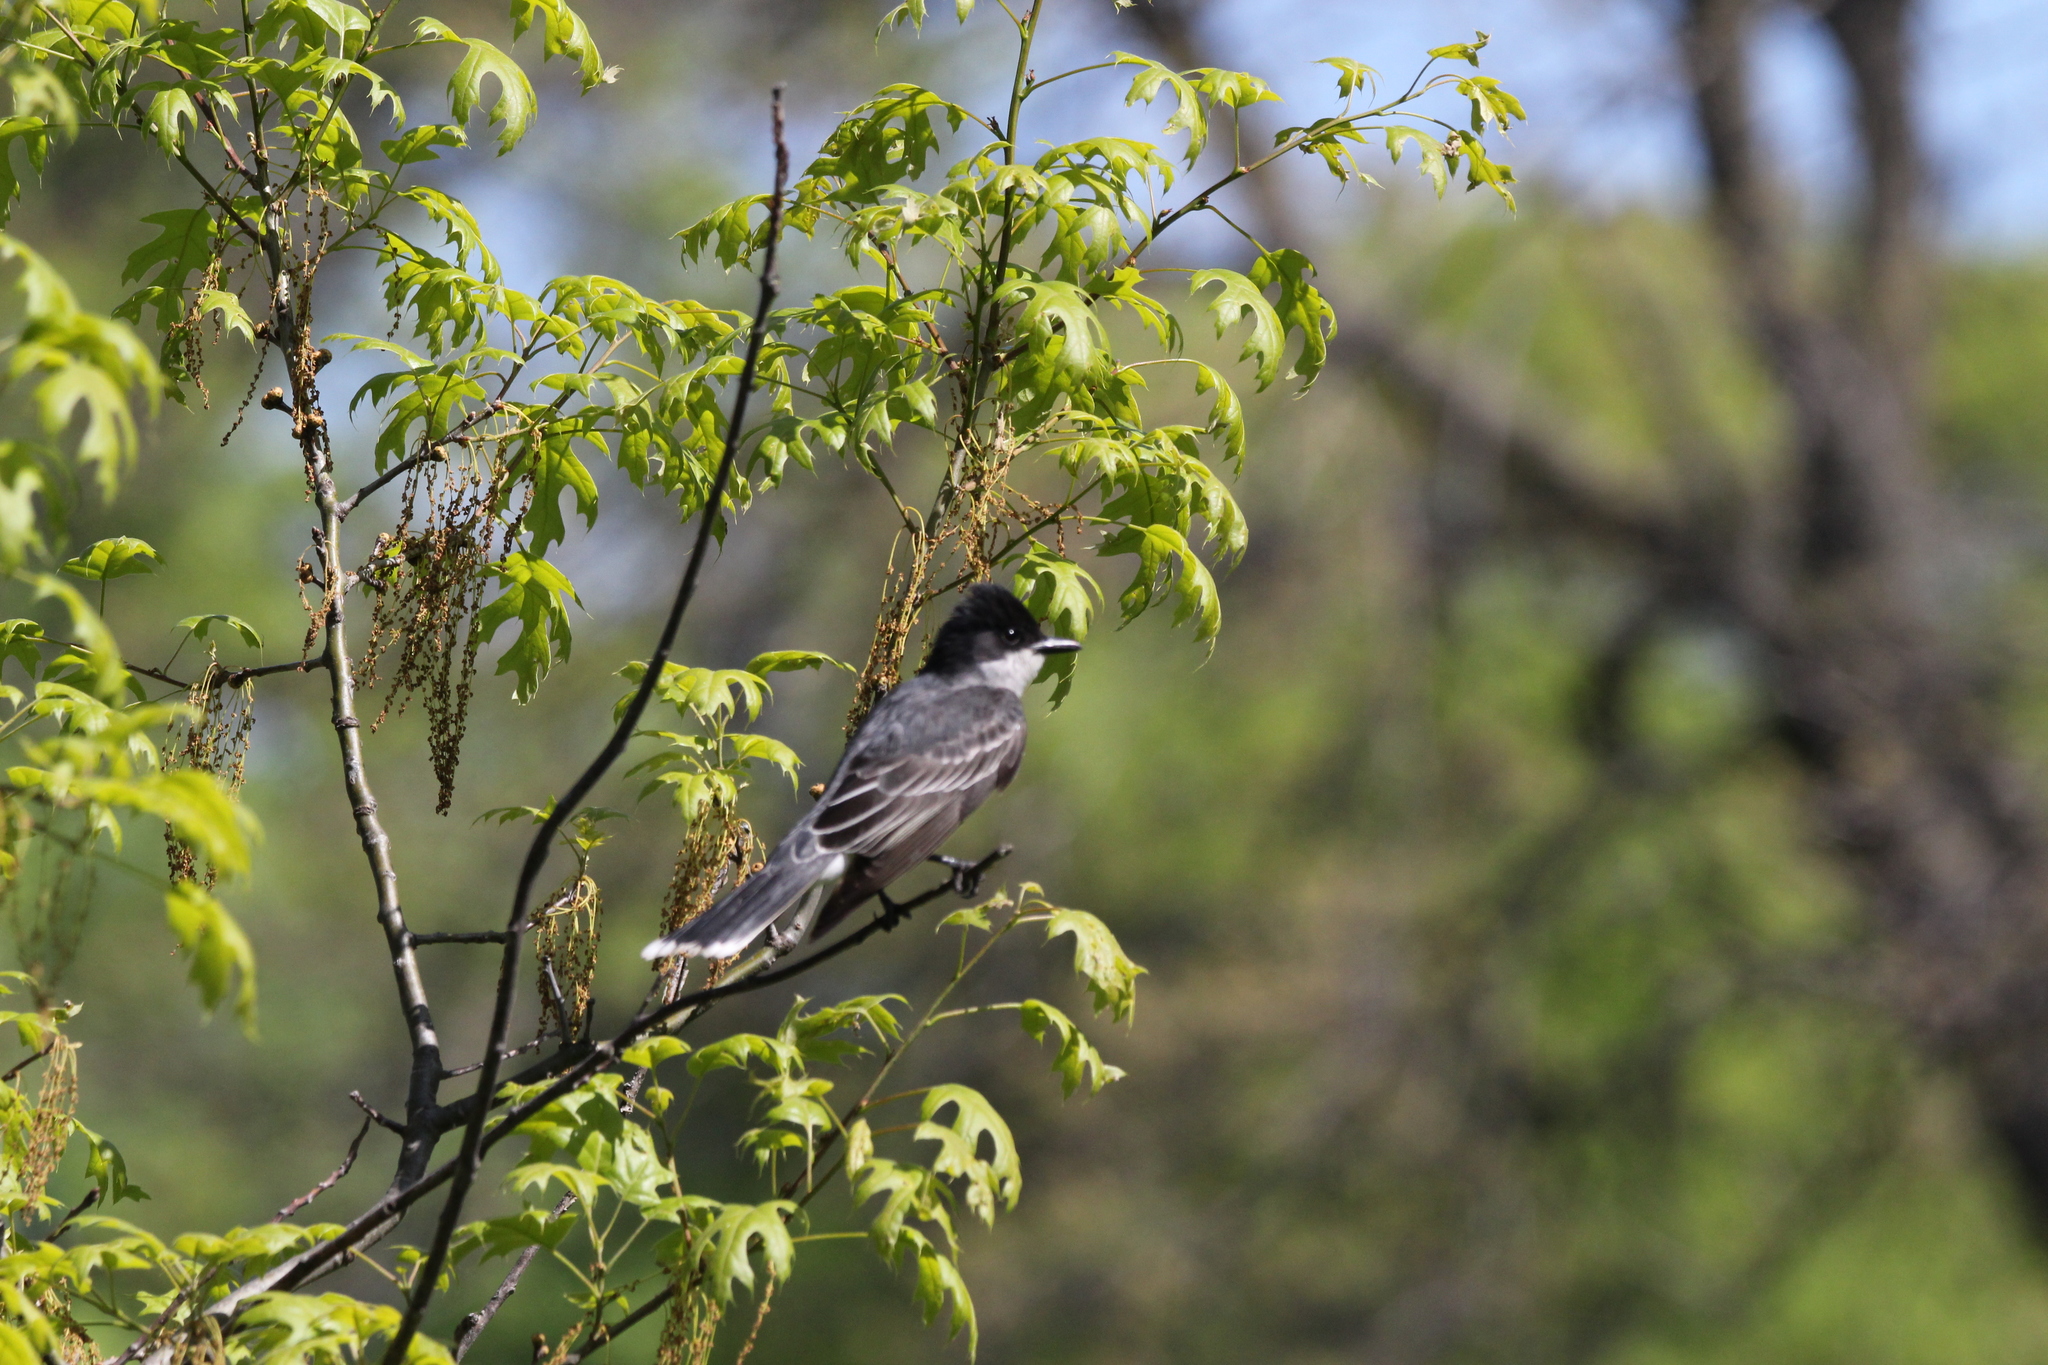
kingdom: Animalia
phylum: Chordata
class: Aves
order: Passeriformes
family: Tyrannidae
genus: Tyrannus
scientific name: Tyrannus tyrannus
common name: Eastern kingbird
